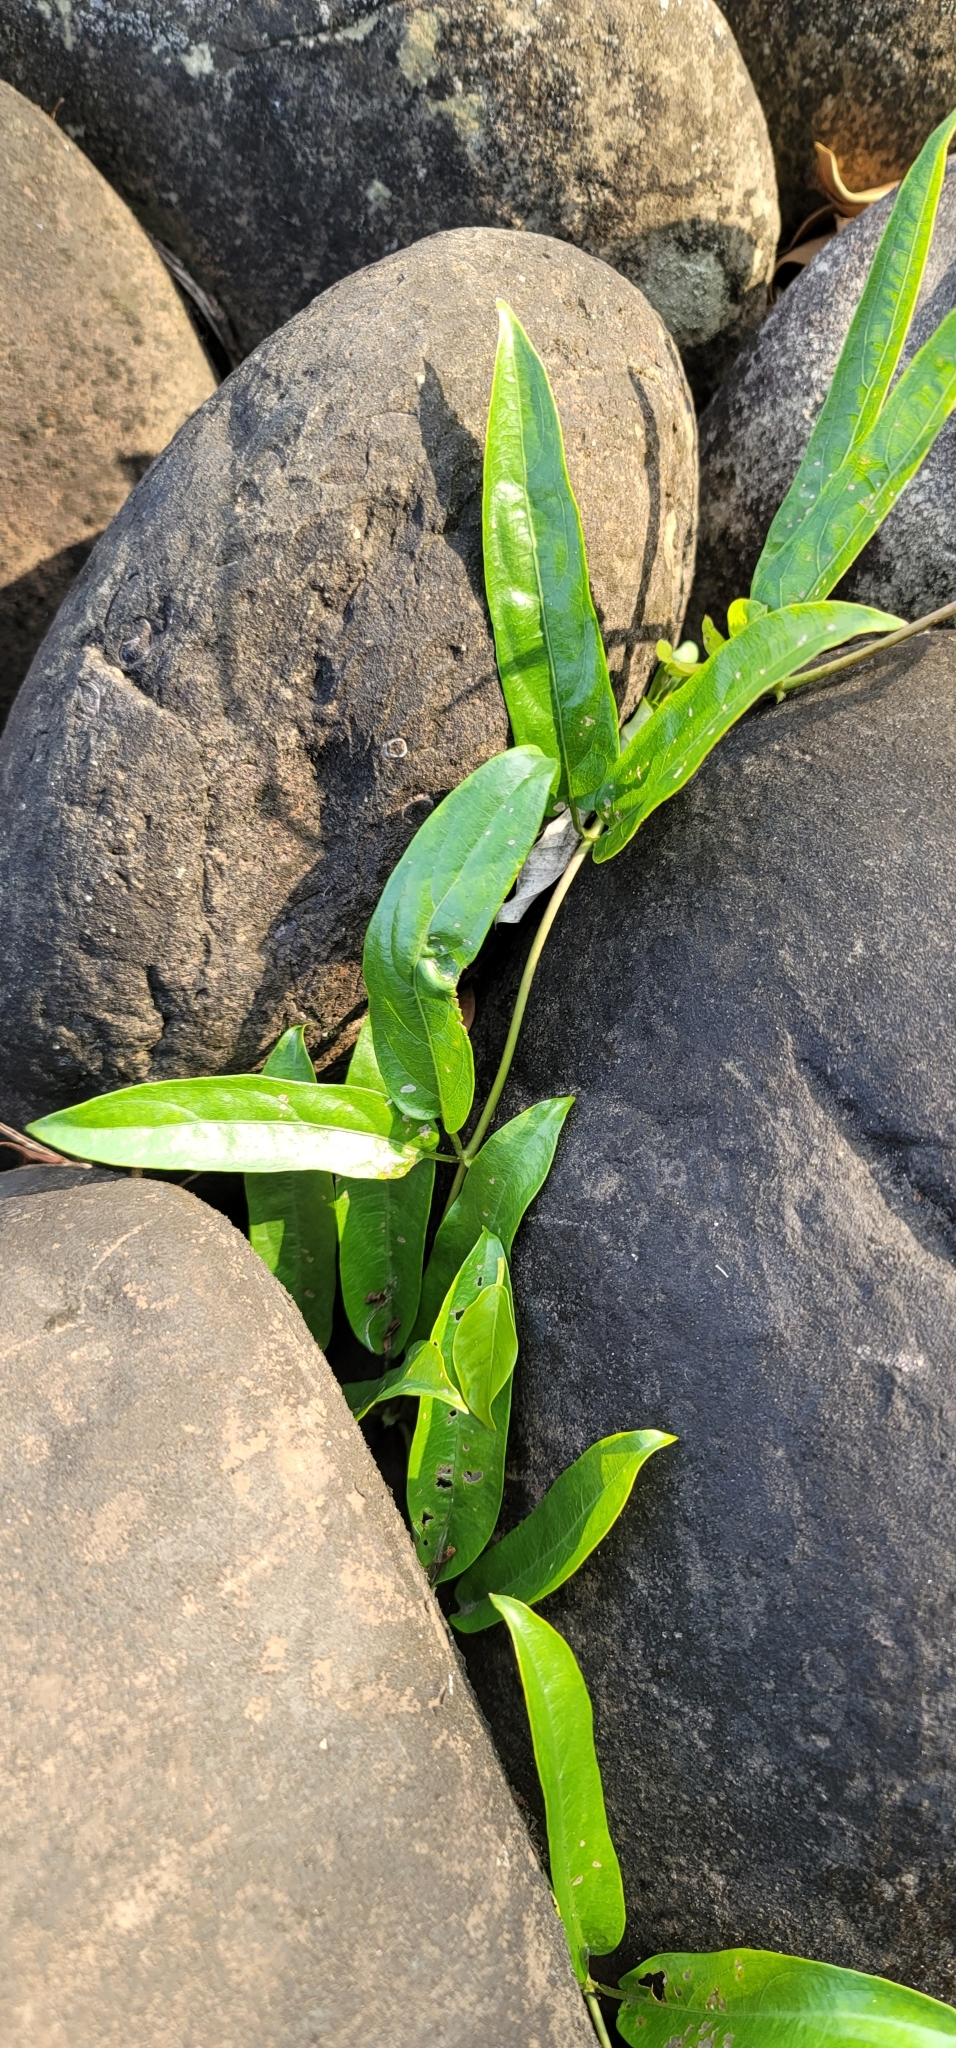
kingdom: Plantae
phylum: Tracheophyta
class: Magnoliopsida
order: Gentianales
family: Rubiaceae
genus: Paederia
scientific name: Paederia foetida
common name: Stinkvine
